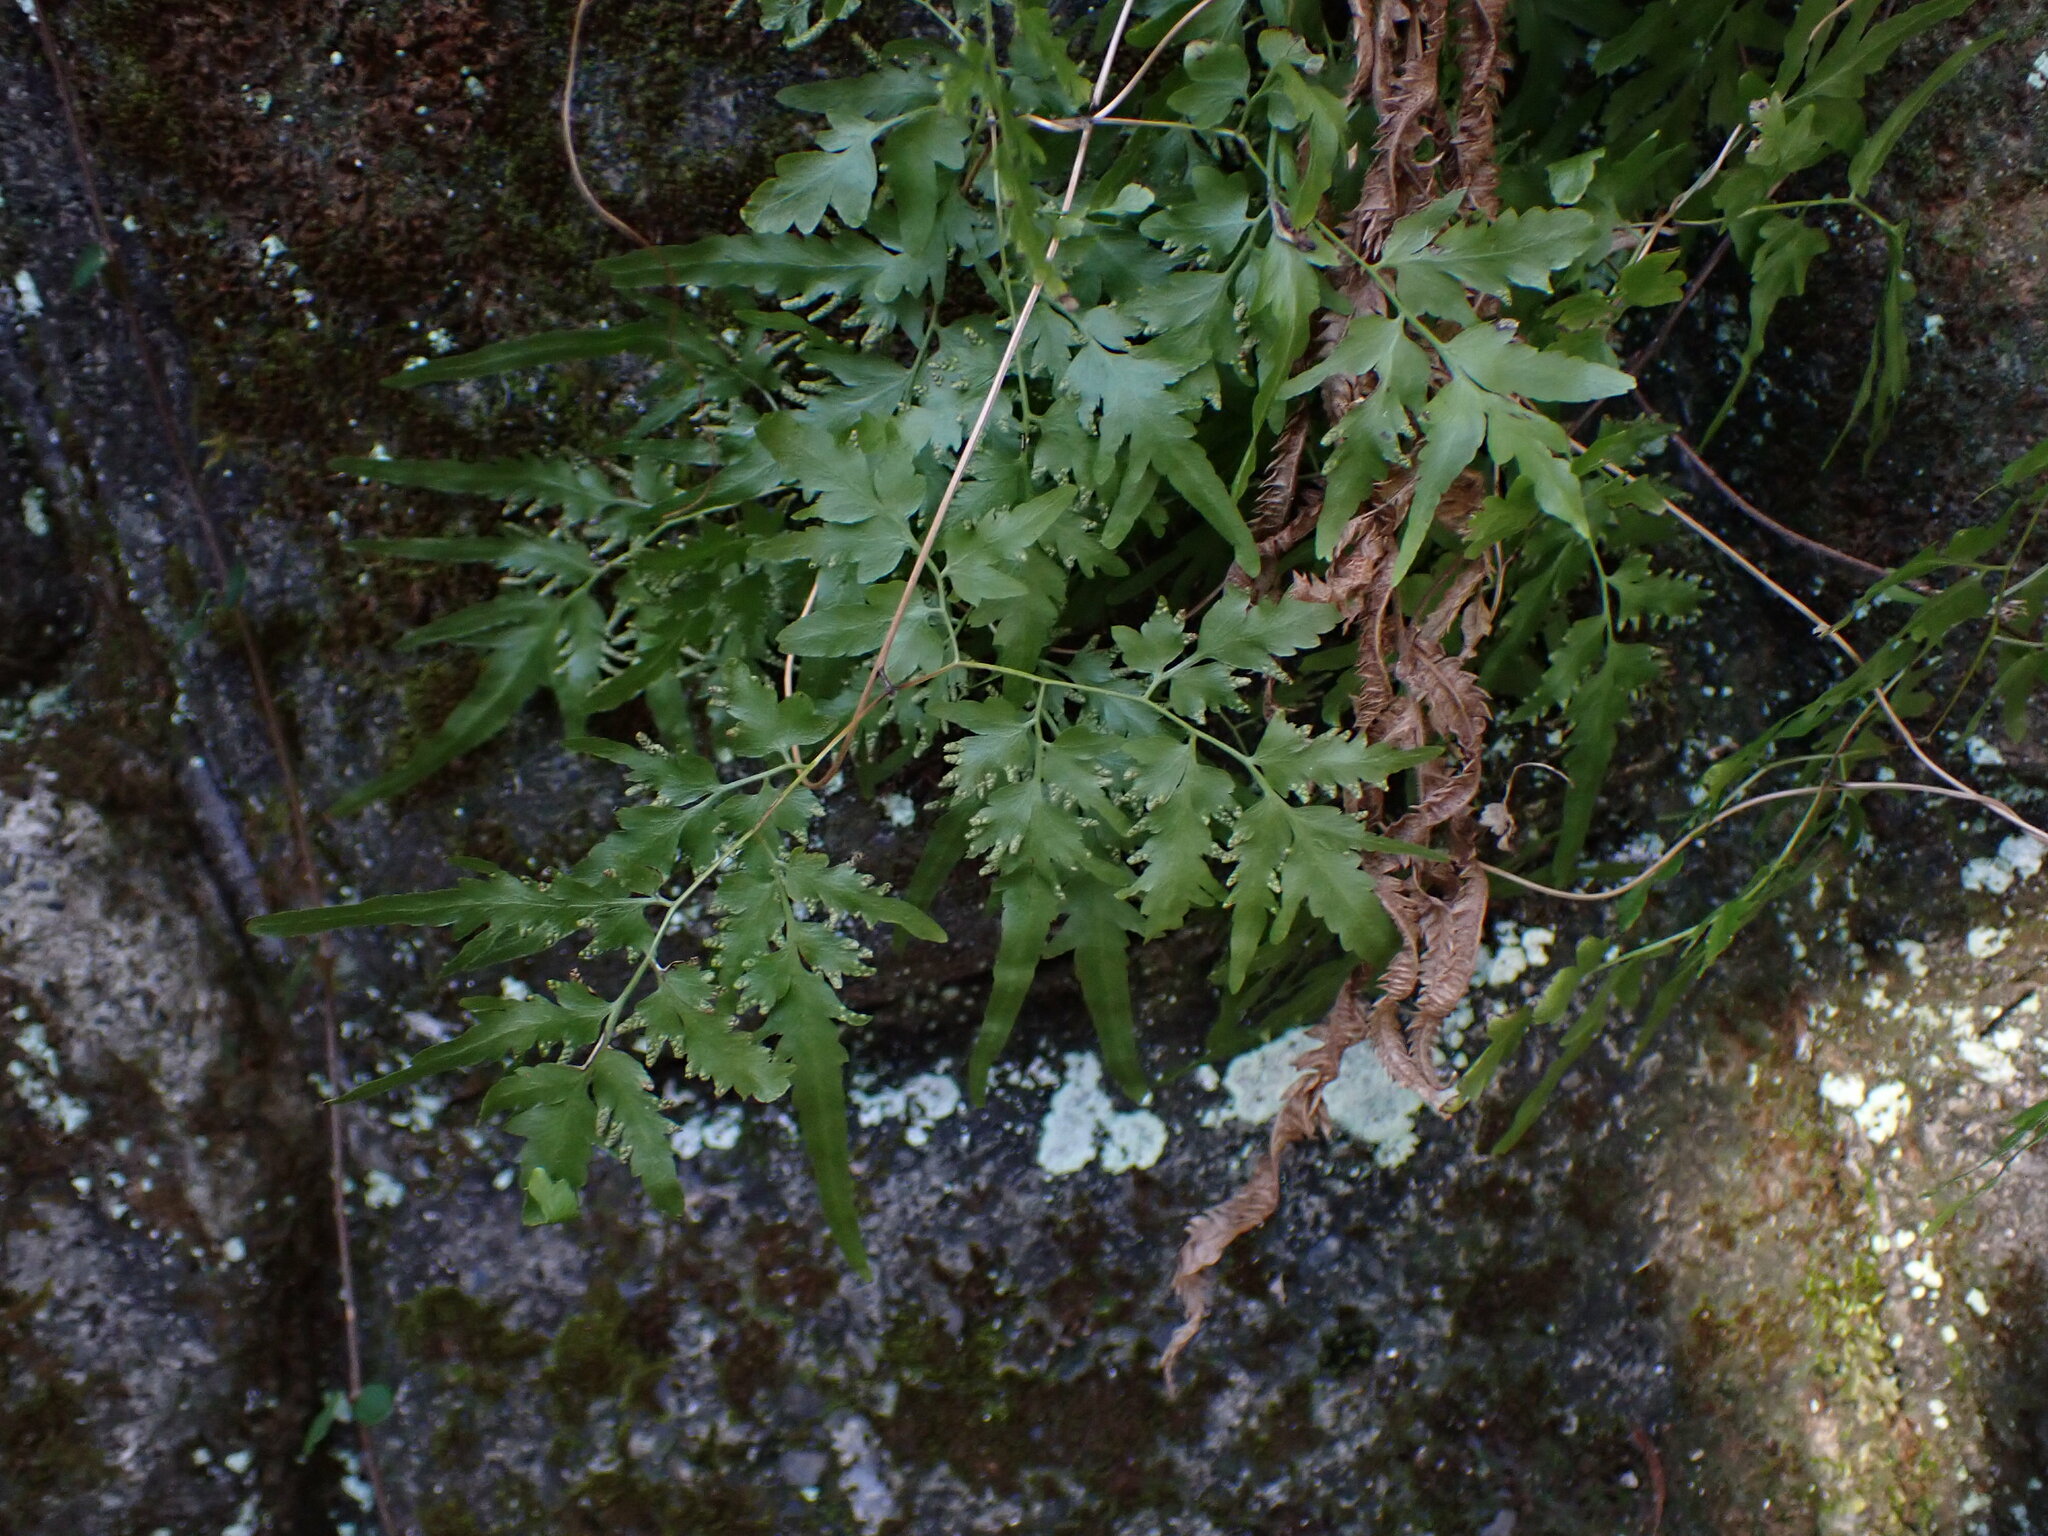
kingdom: Plantae
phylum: Tracheophyta
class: Polypodiopsida
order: Schizaeales
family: Lygodiaceae
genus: Lygodium
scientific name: Lygodium japonicum
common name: Japanese climbing fern
